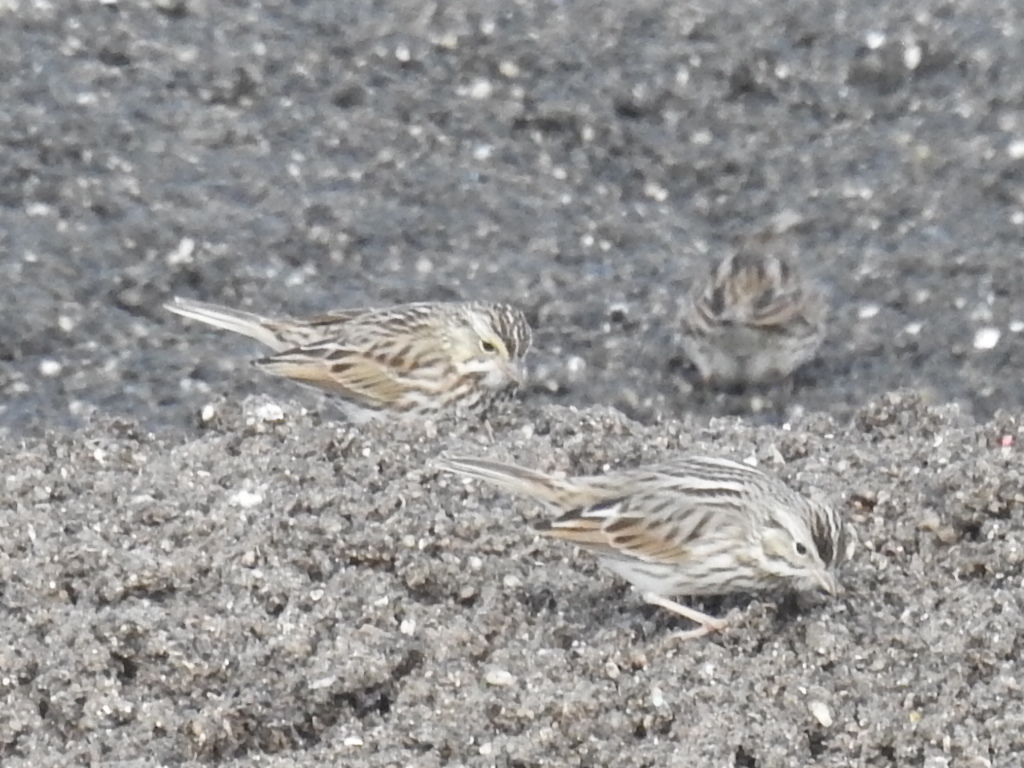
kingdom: Animalia
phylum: Chordata
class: Aves
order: Passeriformes
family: Passerellidae
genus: Passerculus
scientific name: Passerculus sandwichensis
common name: Savannah sparrow
